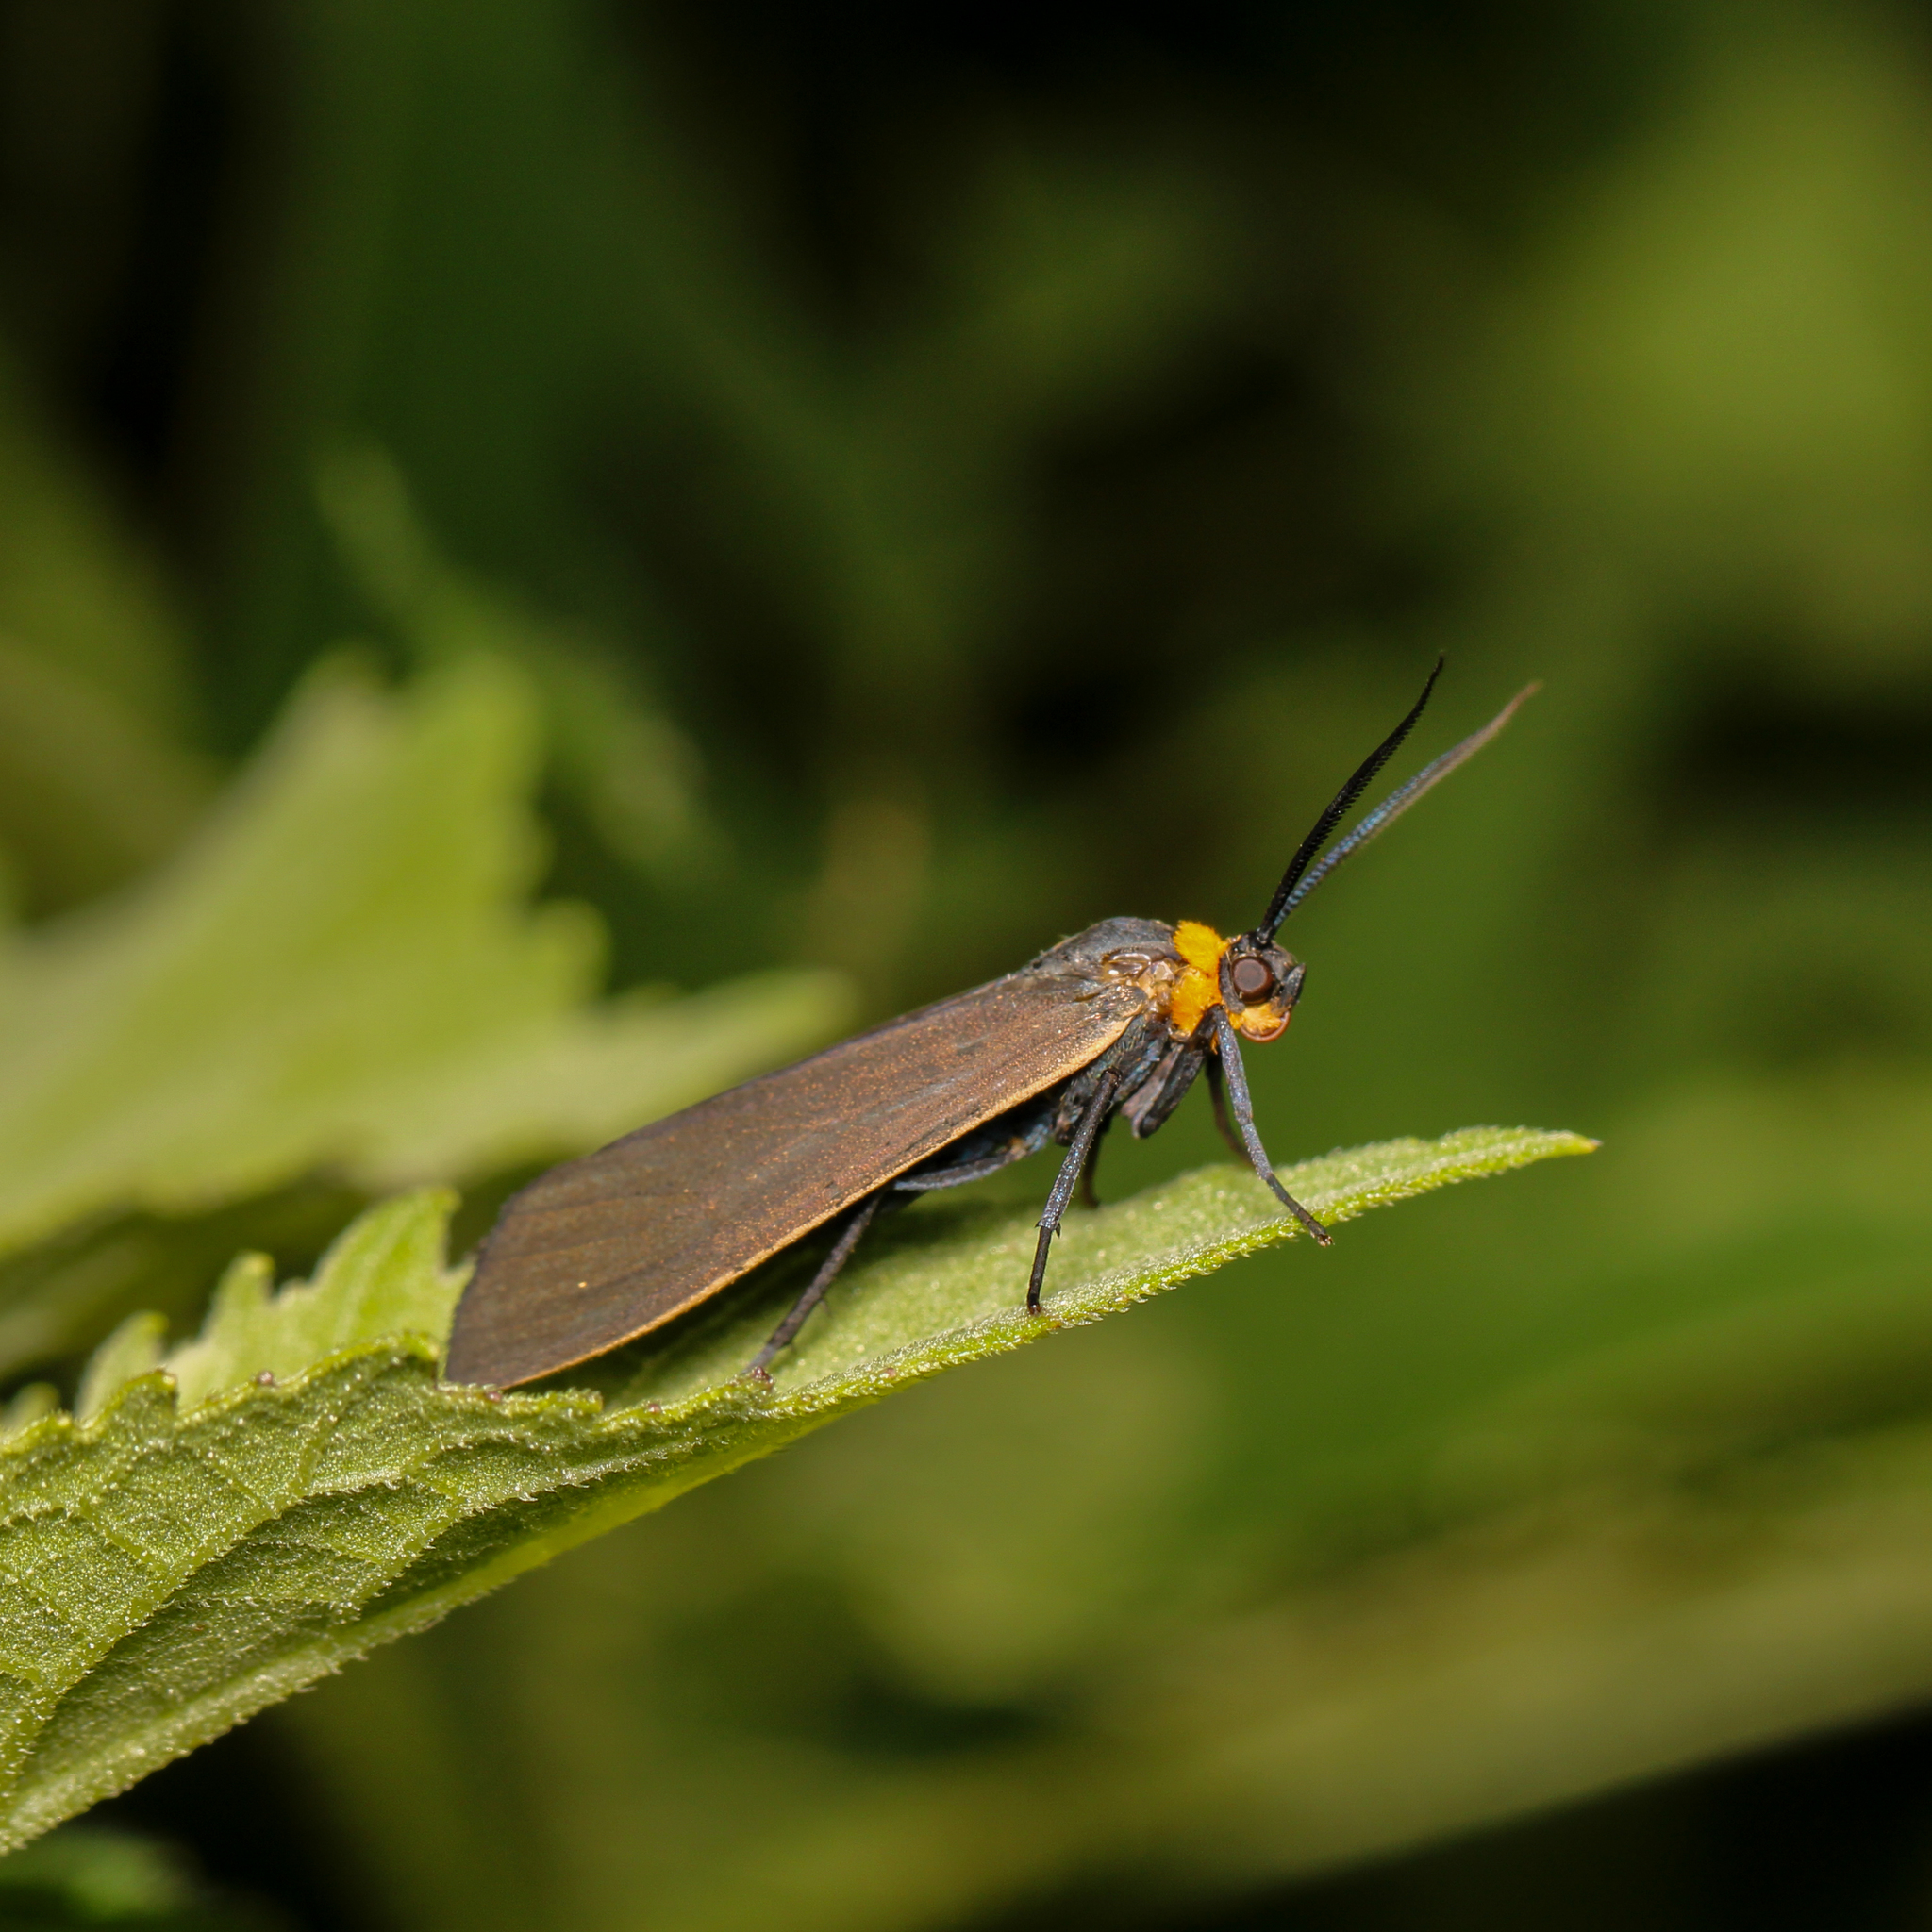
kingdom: Animalia
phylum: Arthropoda
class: Insecta
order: Lepidoptera
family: Erebidae
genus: Cisseps
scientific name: Cisseps fulvicollis
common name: Yellow-collared scape moth
